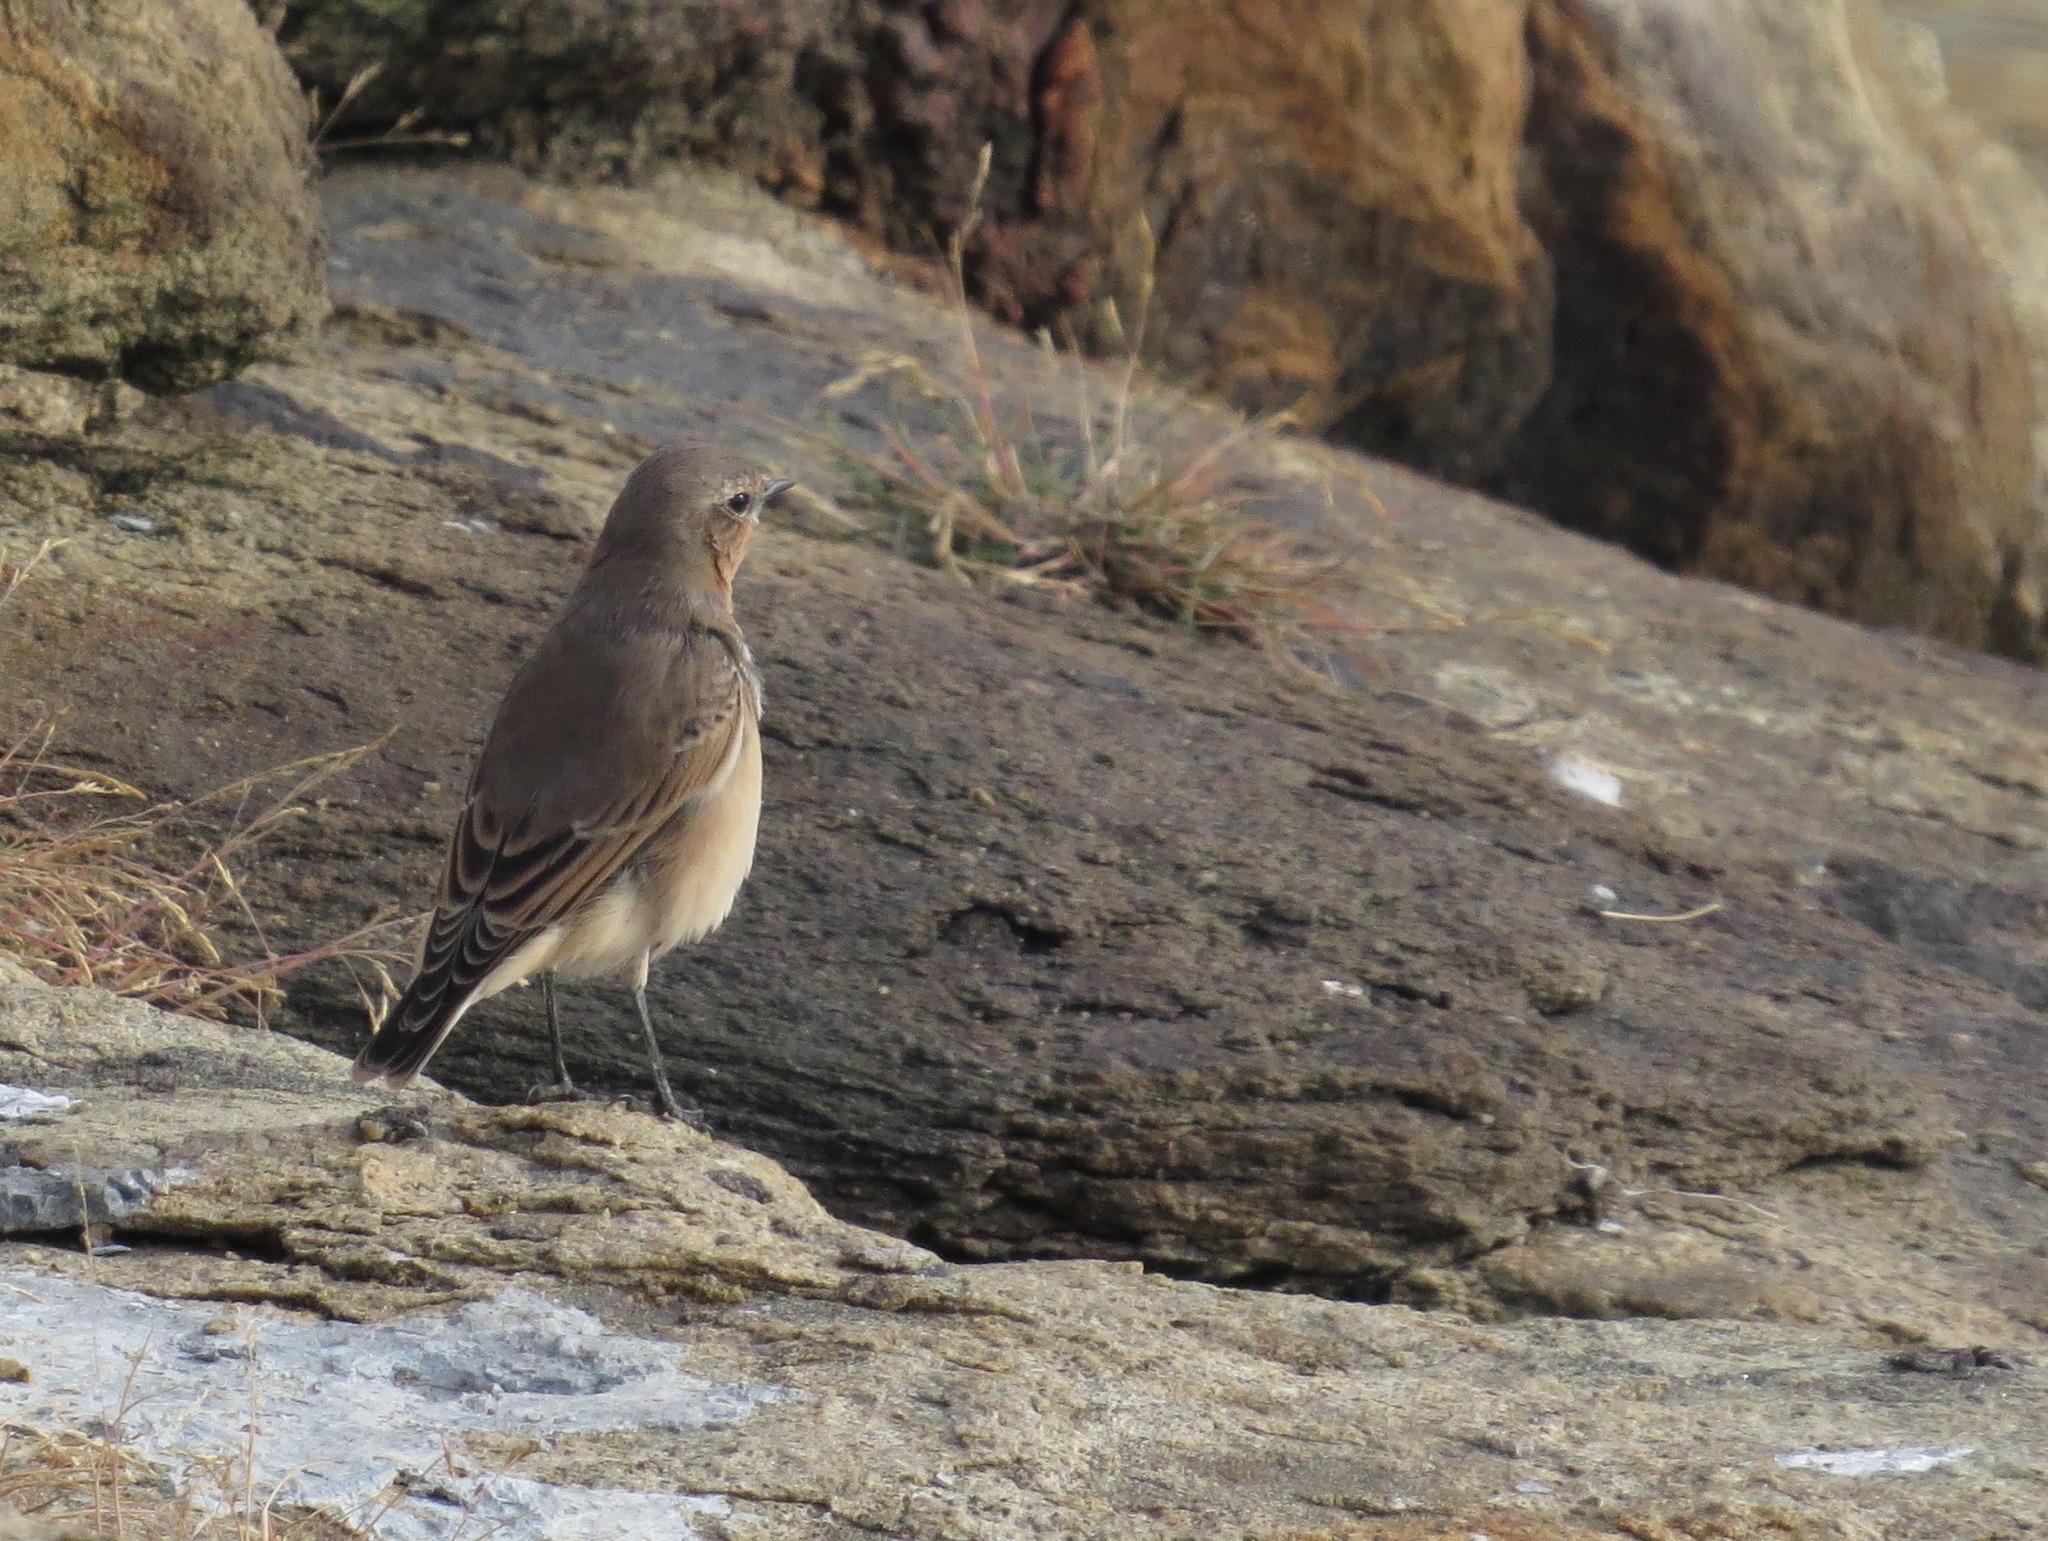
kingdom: Animalia
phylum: Chordata
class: Aves
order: Passeriformes
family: Muscicapidae
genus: Oenanthe
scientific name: Oenanthe oenanthe
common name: Northern wheatear
